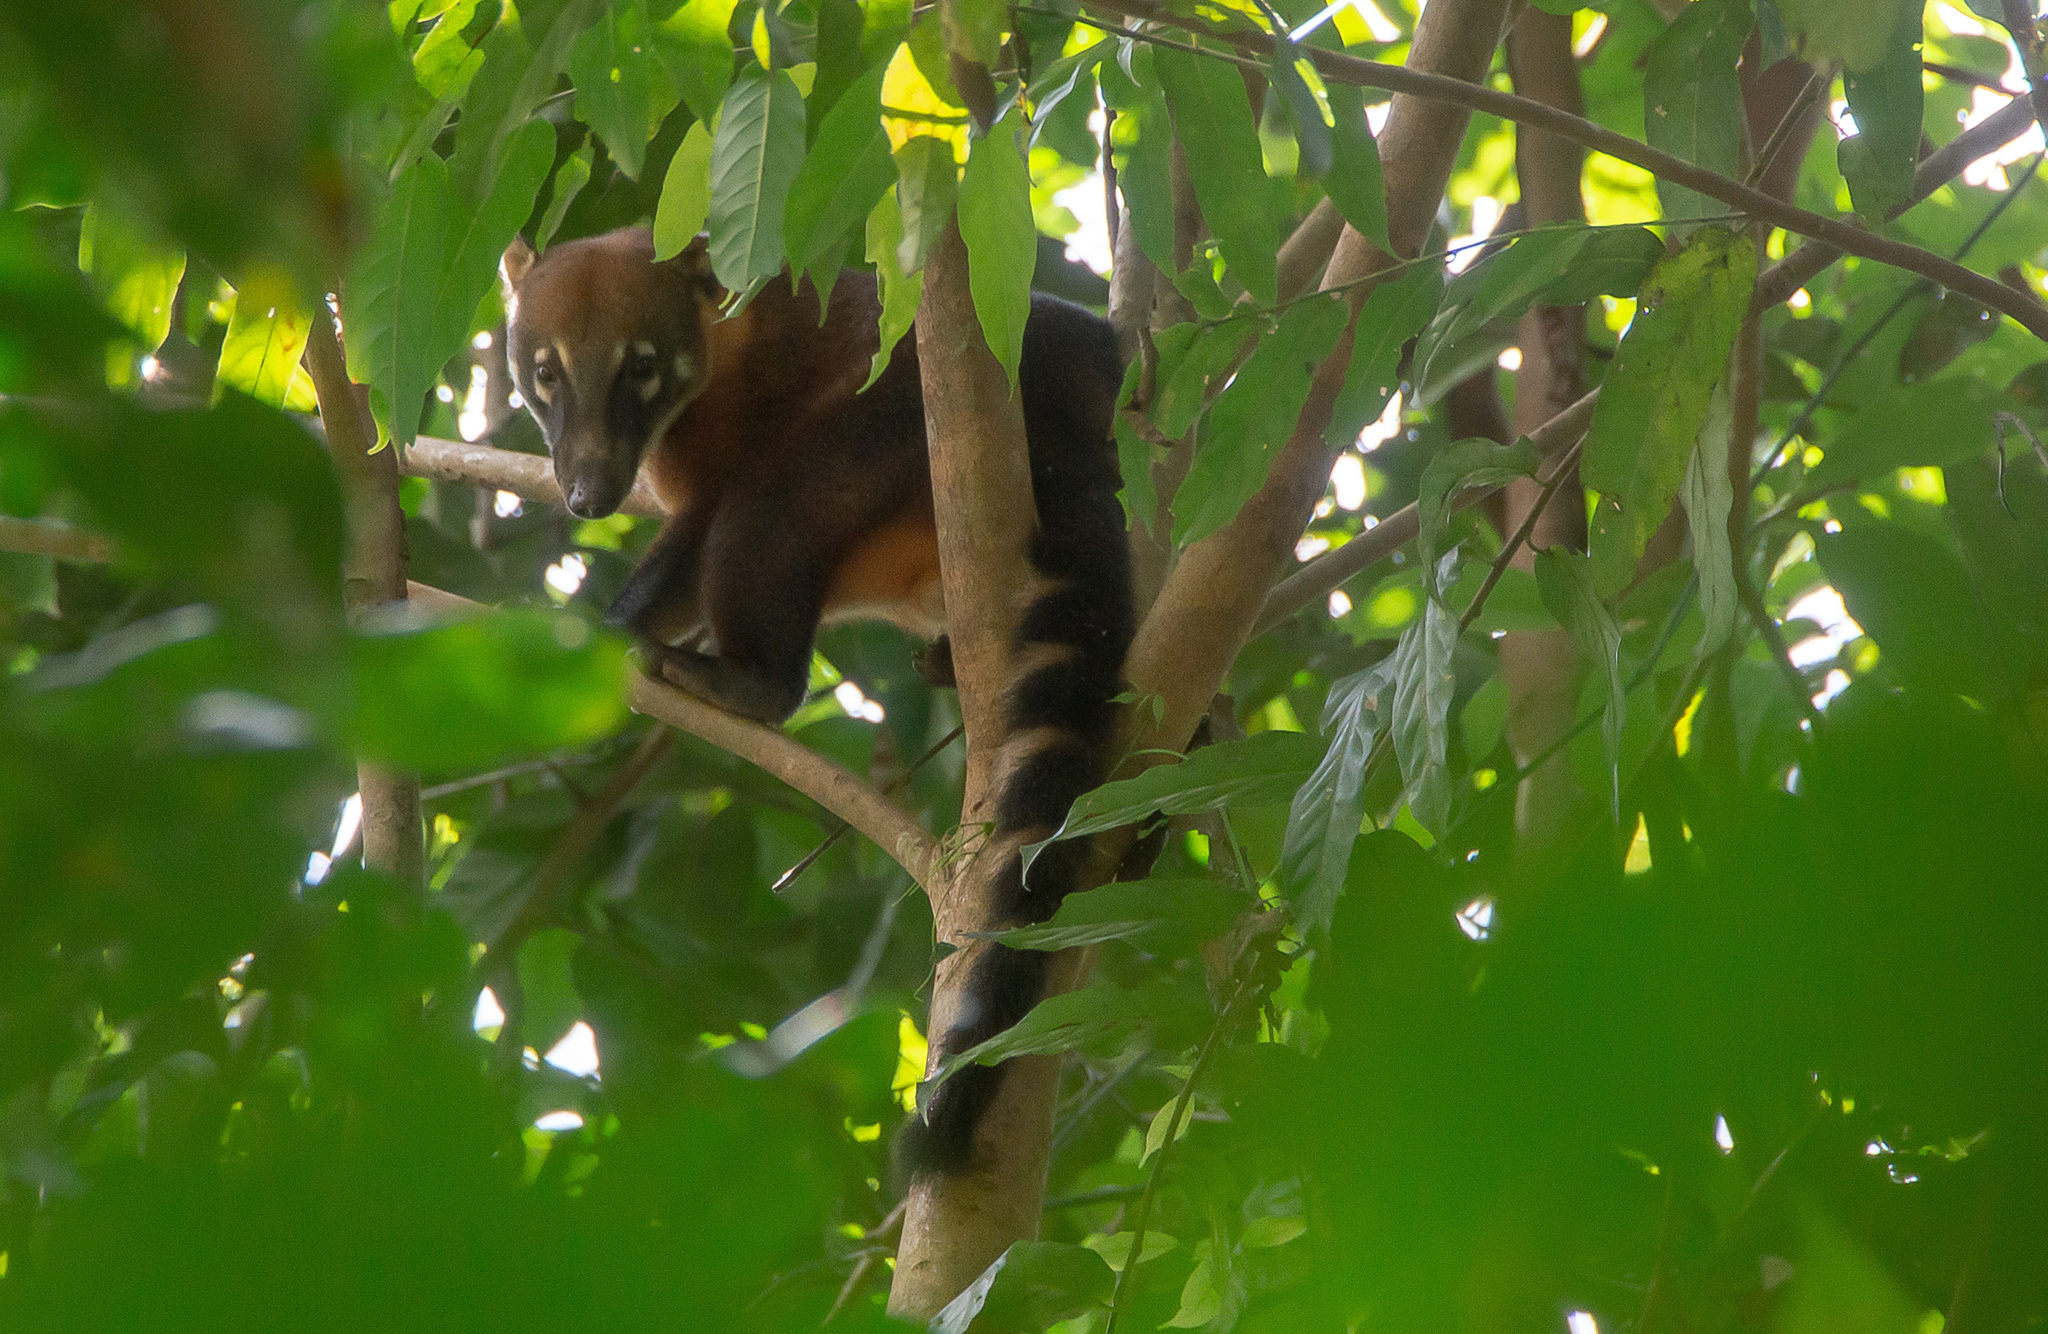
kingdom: Animalia
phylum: Chordata
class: Mammalia
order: Carnivora
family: Procyonidae
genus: Nasua
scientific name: Nasua nasua
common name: South american coati
